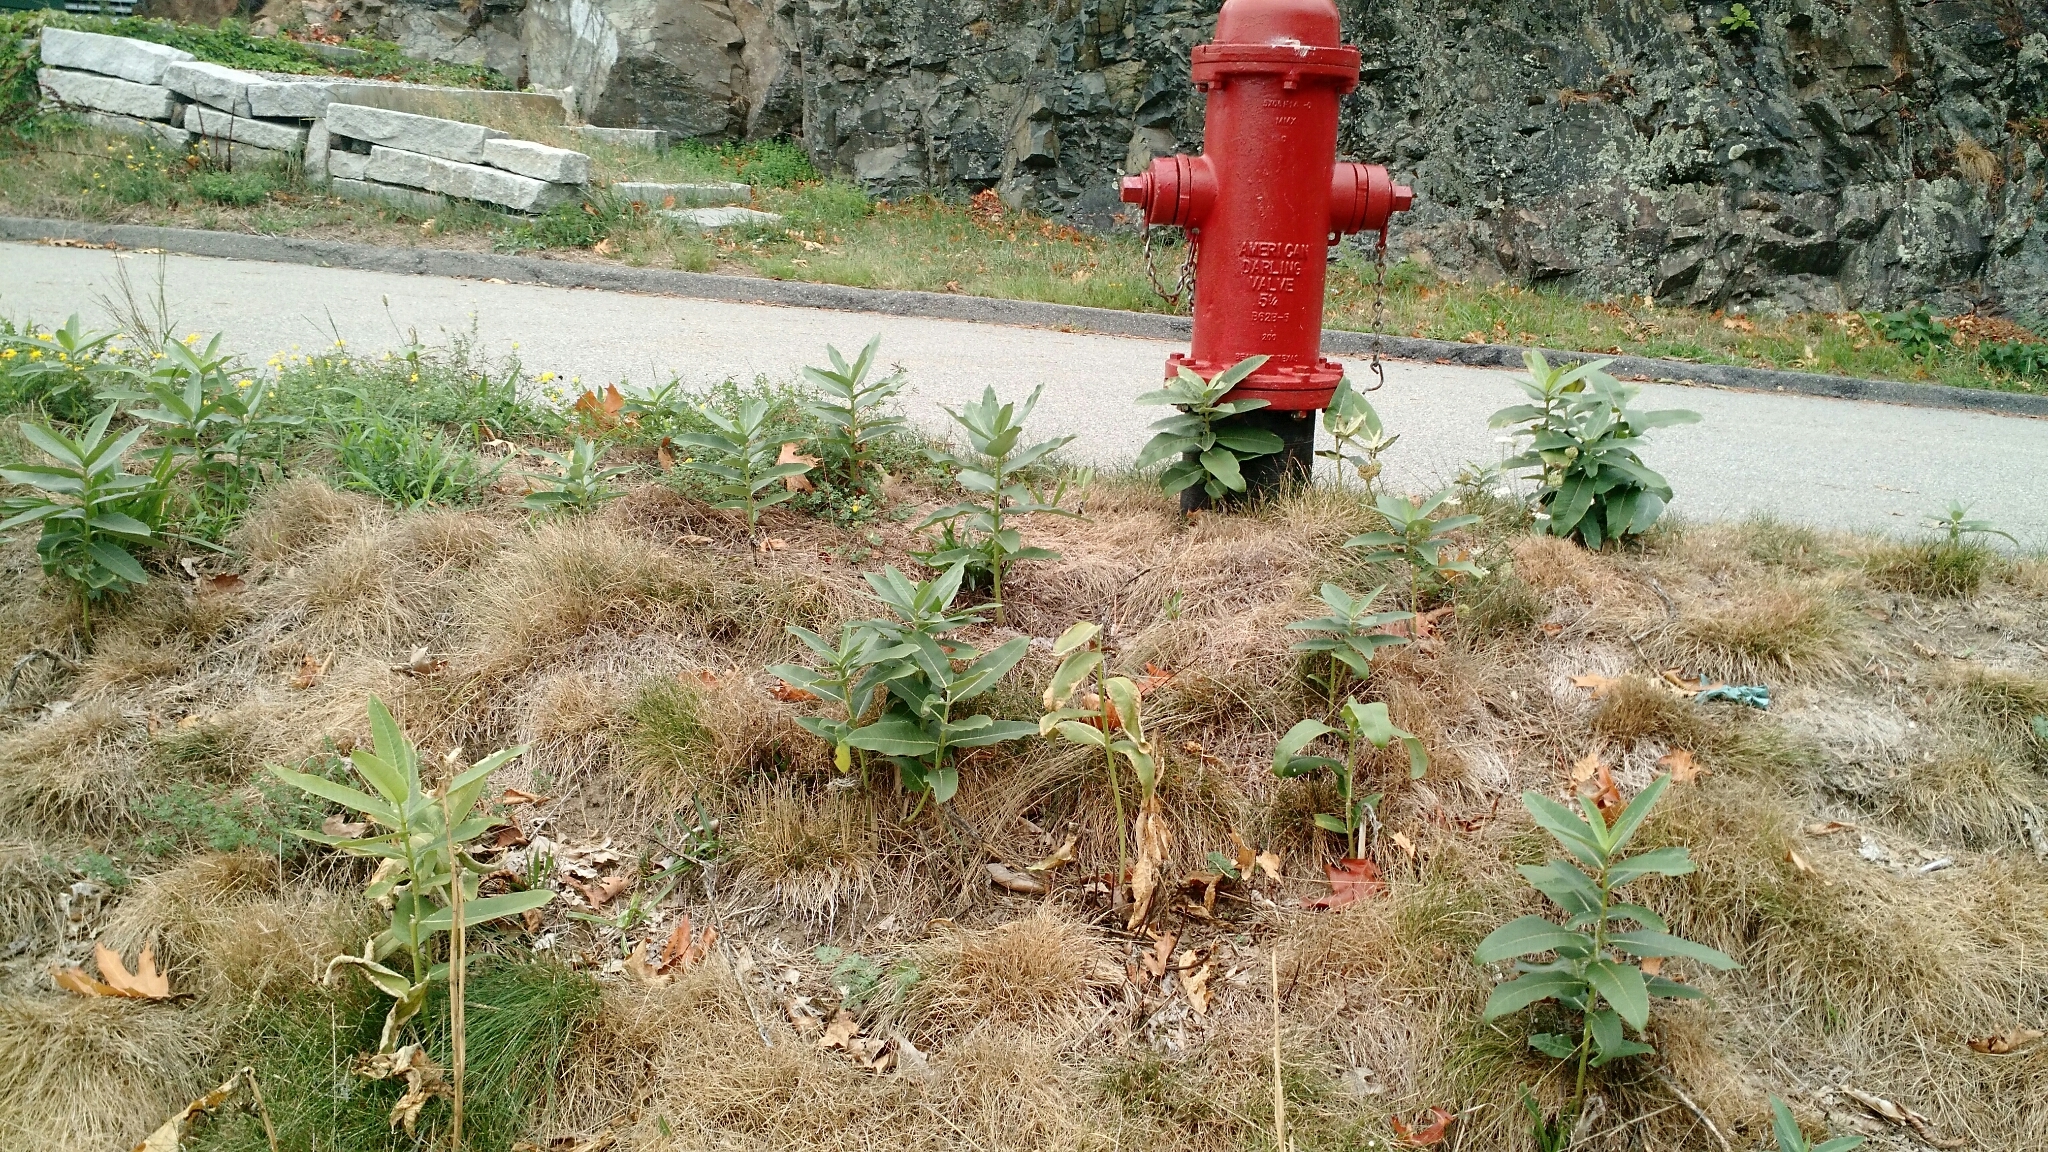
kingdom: Plantae
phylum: Tracheophyta
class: Magnoliopsida
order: Gentianales
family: Apocynaceae
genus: Asclepias
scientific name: Asclepias syriaca
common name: Common milkweed
